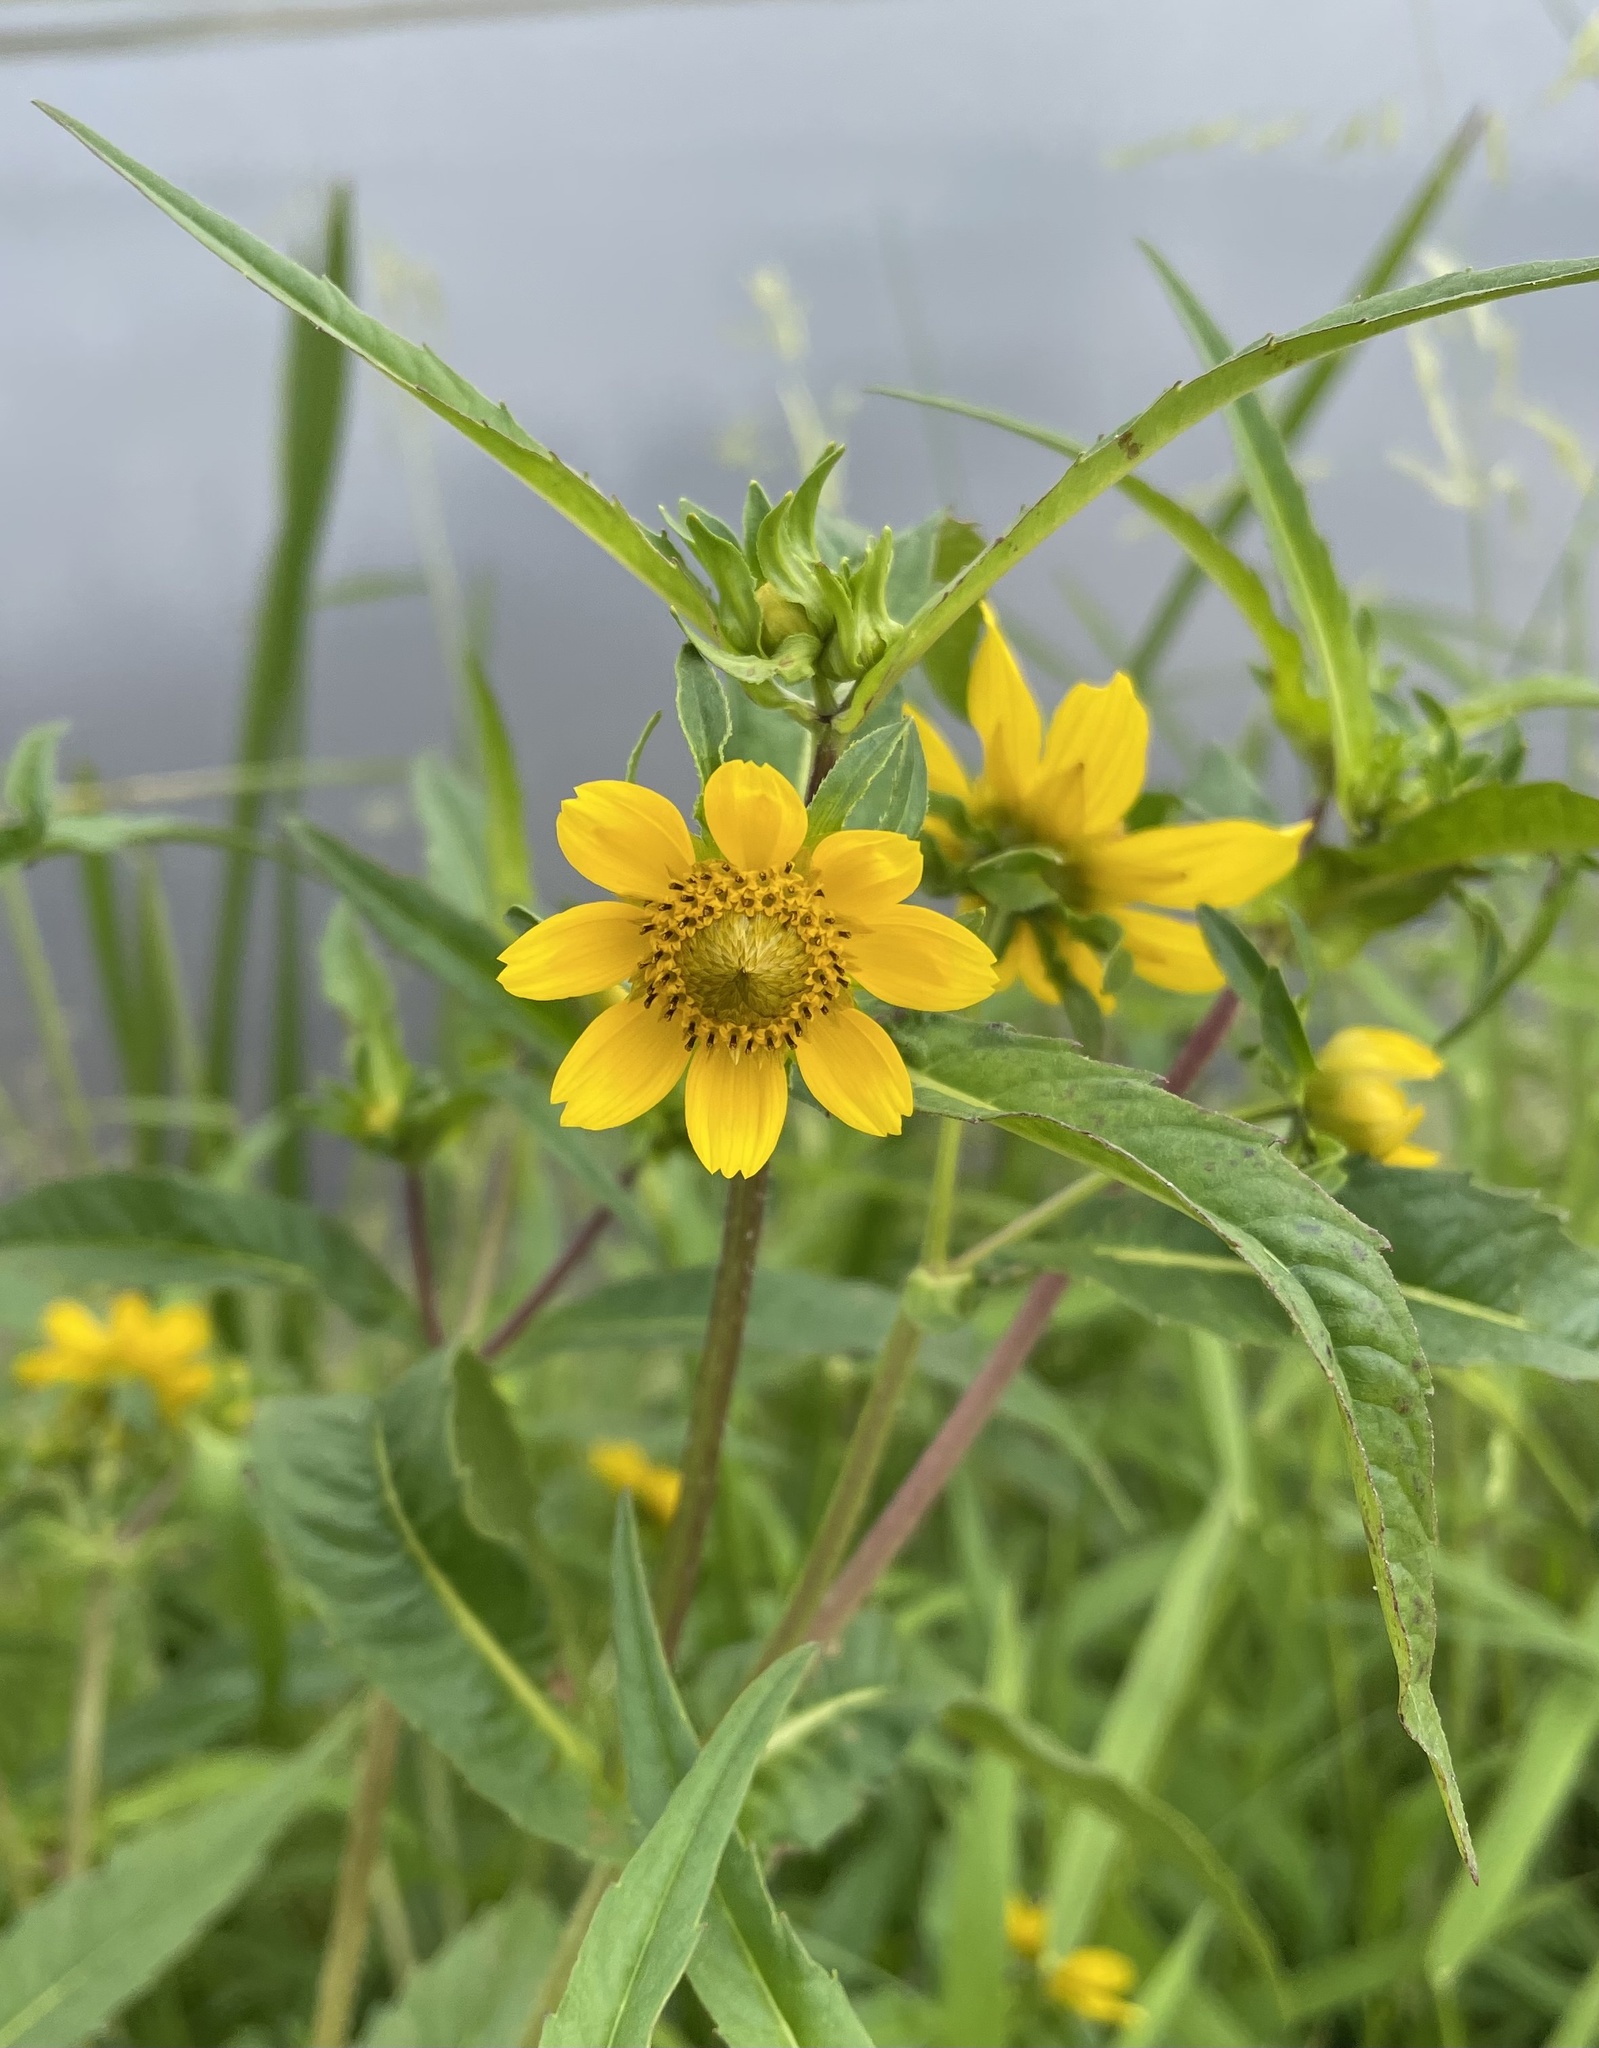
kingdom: Plantae
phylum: Tracheophyta
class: Magnoliopsida
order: Asterales
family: Asteraceae
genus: Bidens
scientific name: Bidens cernua
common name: Nodding bur-marigold
